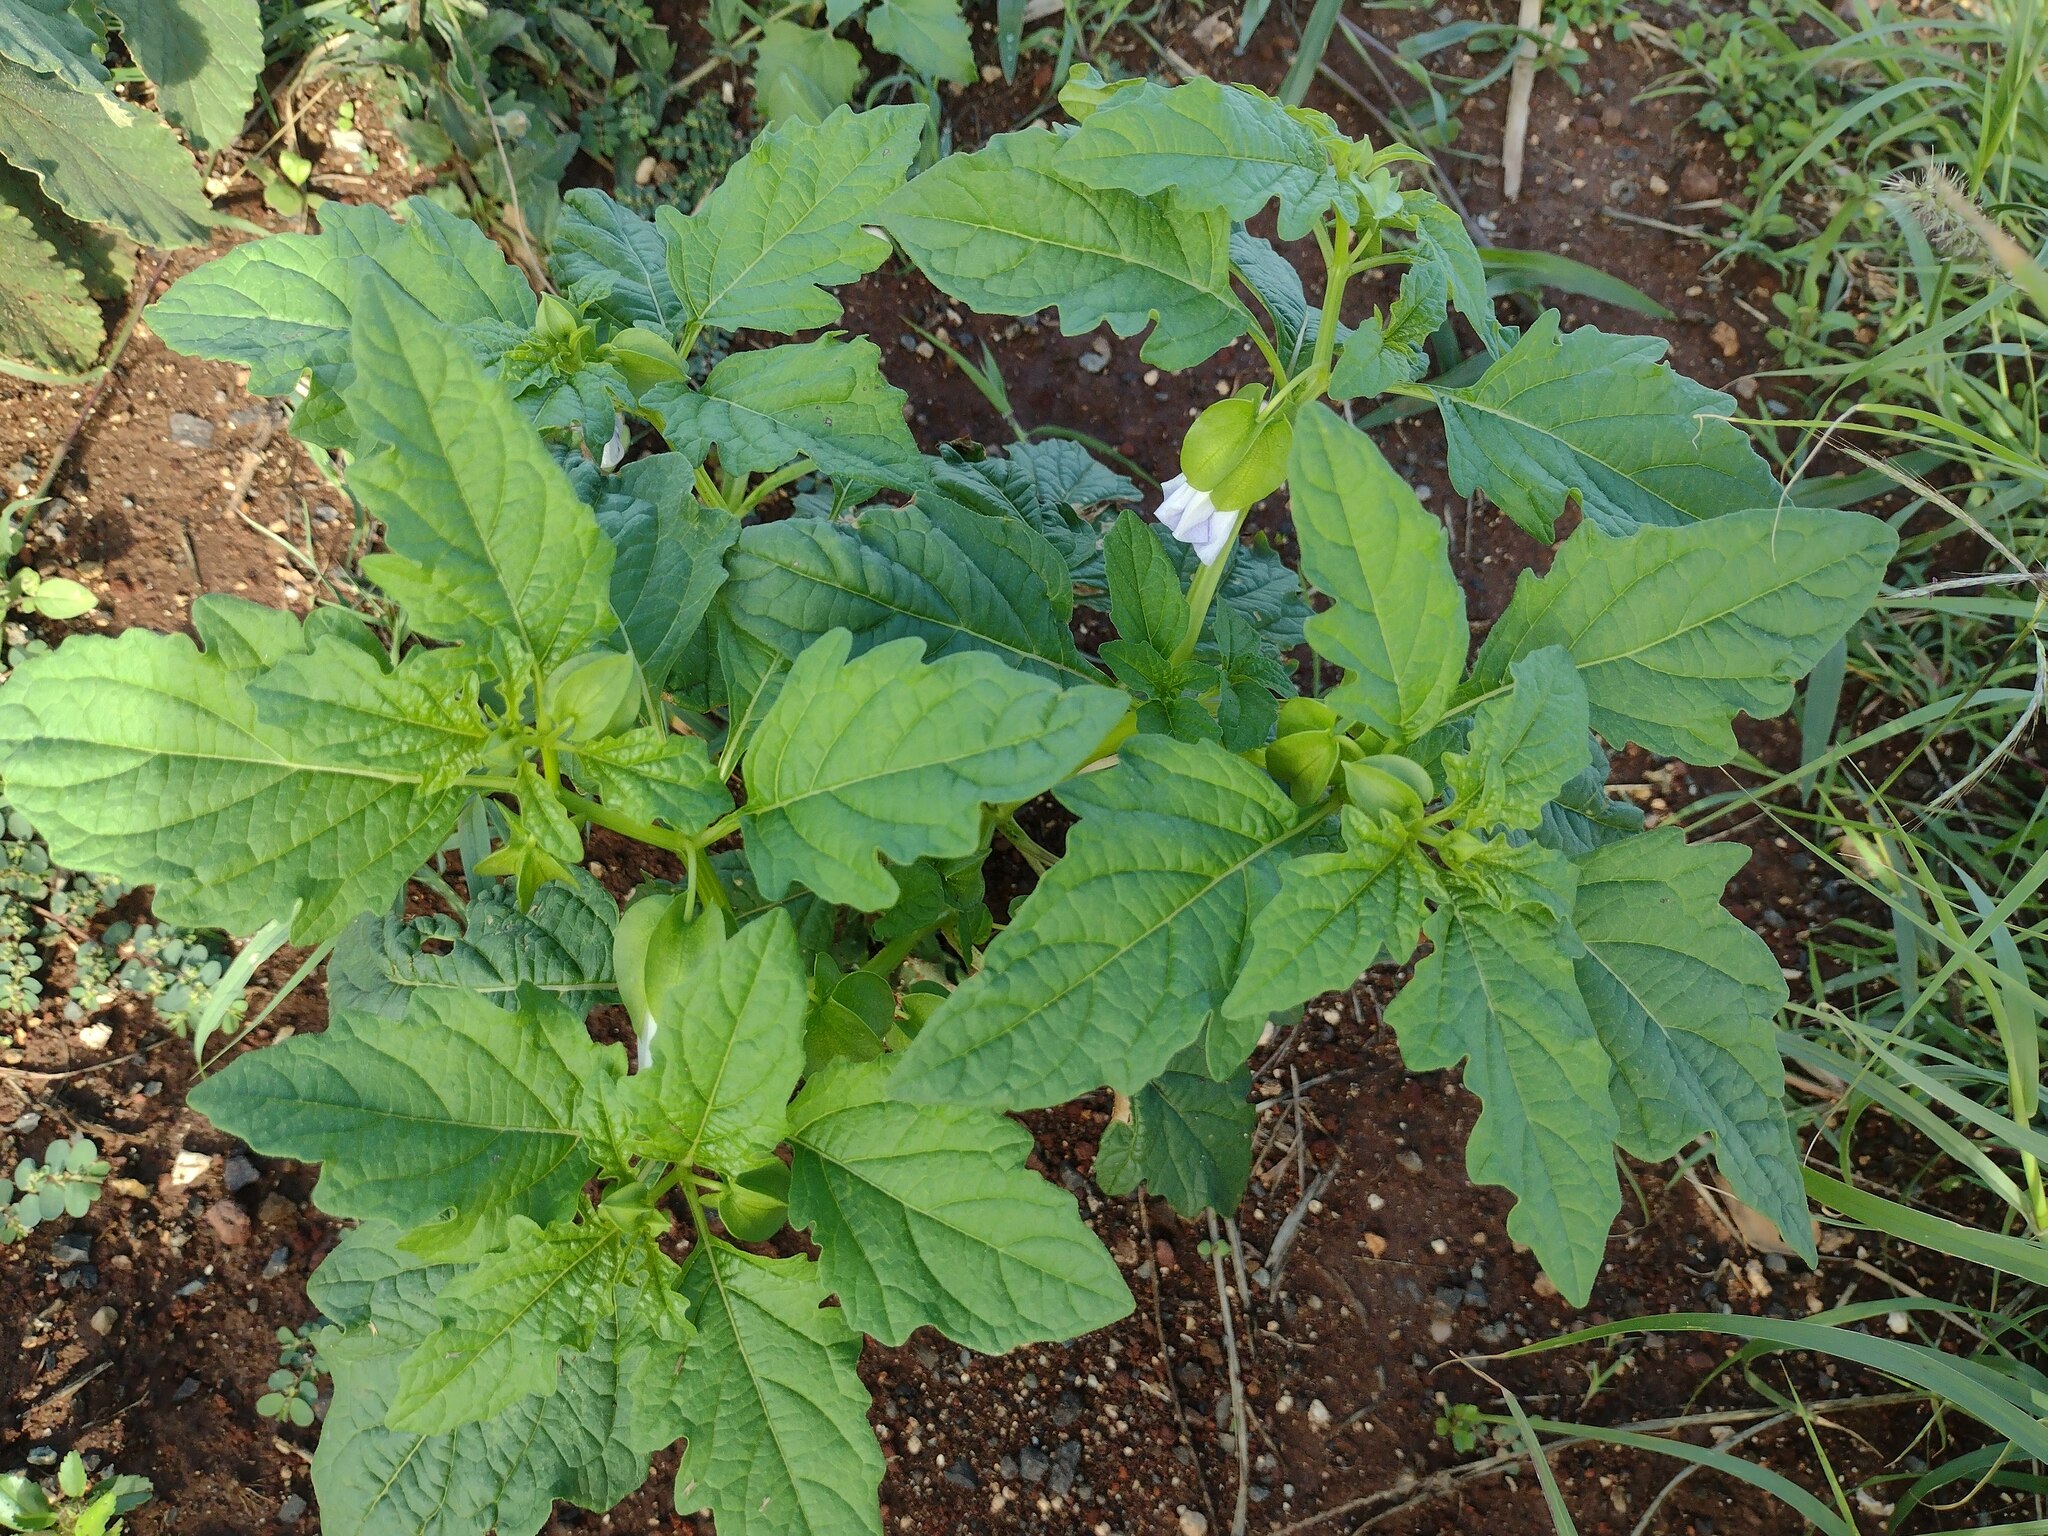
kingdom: Plantae
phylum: Tracheophyta
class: Magnoliopsida
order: Solanales
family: Solanaceae
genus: Nicandra
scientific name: Nicandra physalodes
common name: Apple-of-peru
